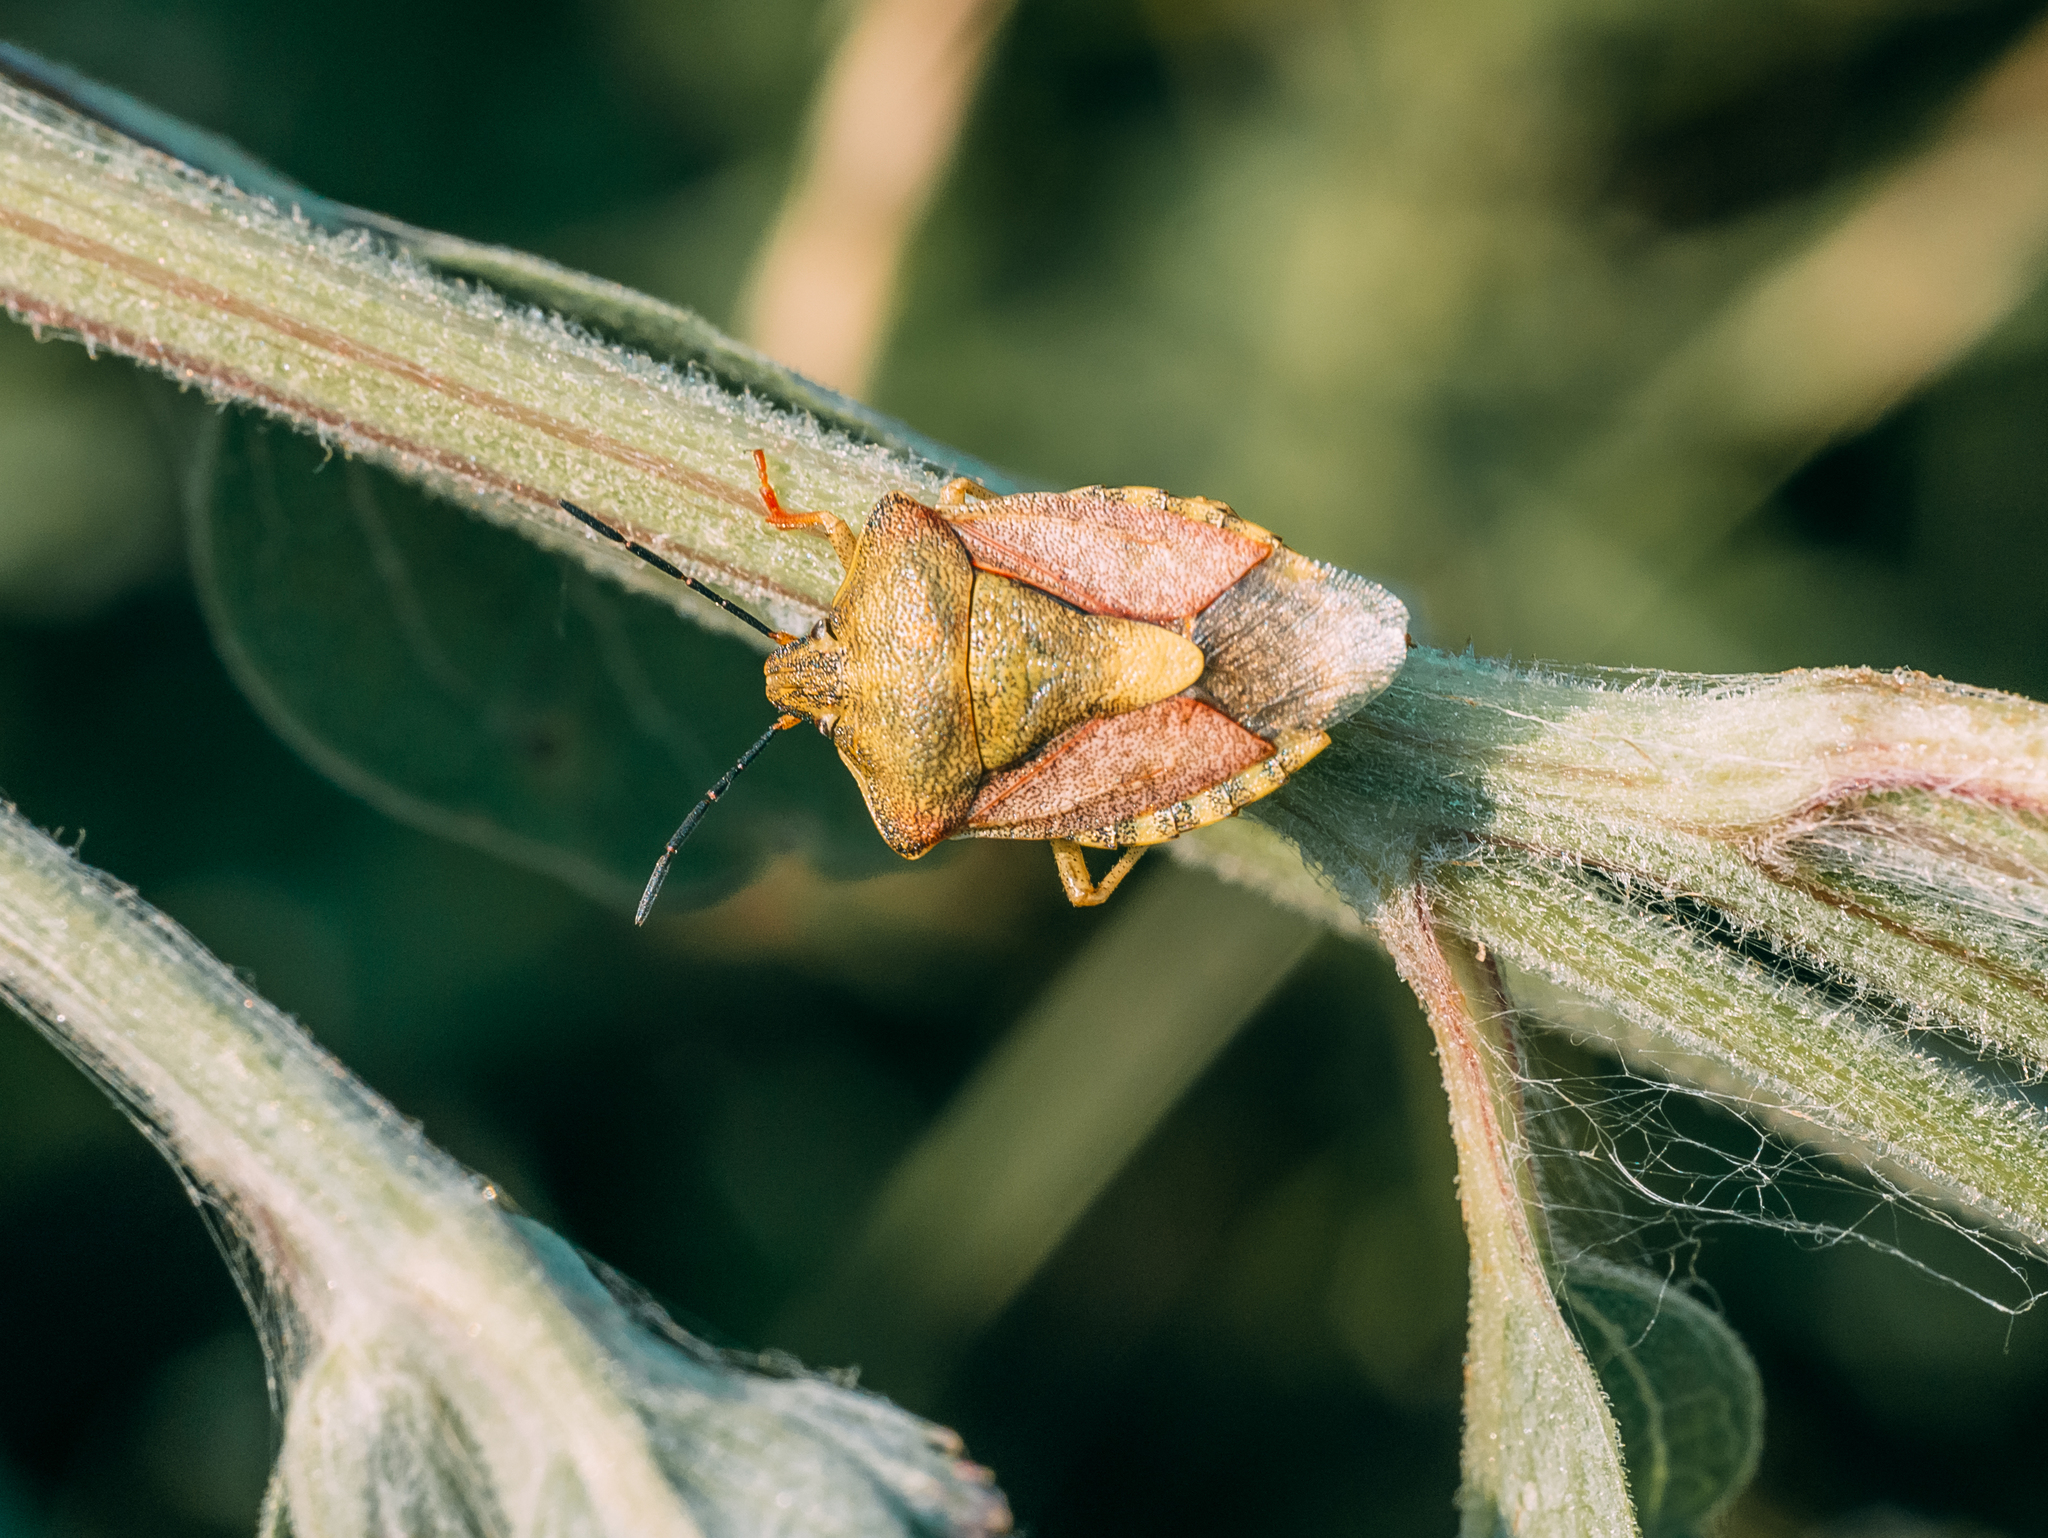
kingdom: Animalia
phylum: Arthropoda
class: Insecta
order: Hemiptera
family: Pentatomidae
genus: Carpocoris
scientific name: Carpocoris purpureipennis
